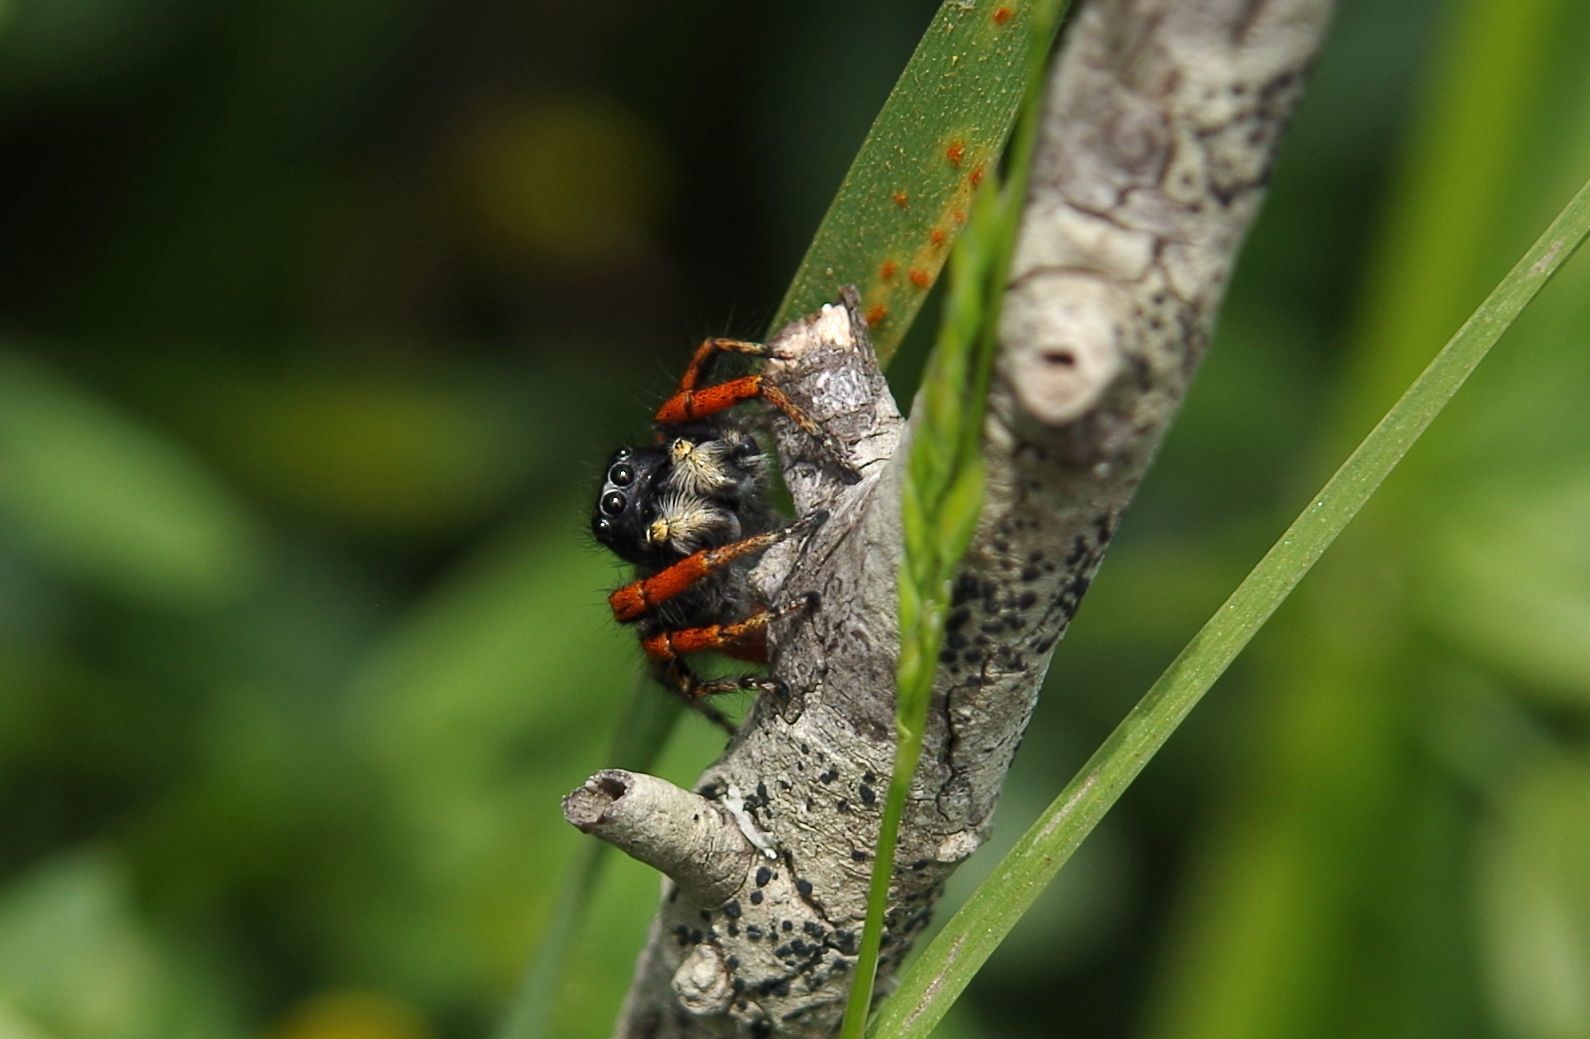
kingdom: Animalia
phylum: Arthropoda
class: Arachnida
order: Araneae
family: Salticidae
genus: Philaeus
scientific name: Philaeus chrysops
